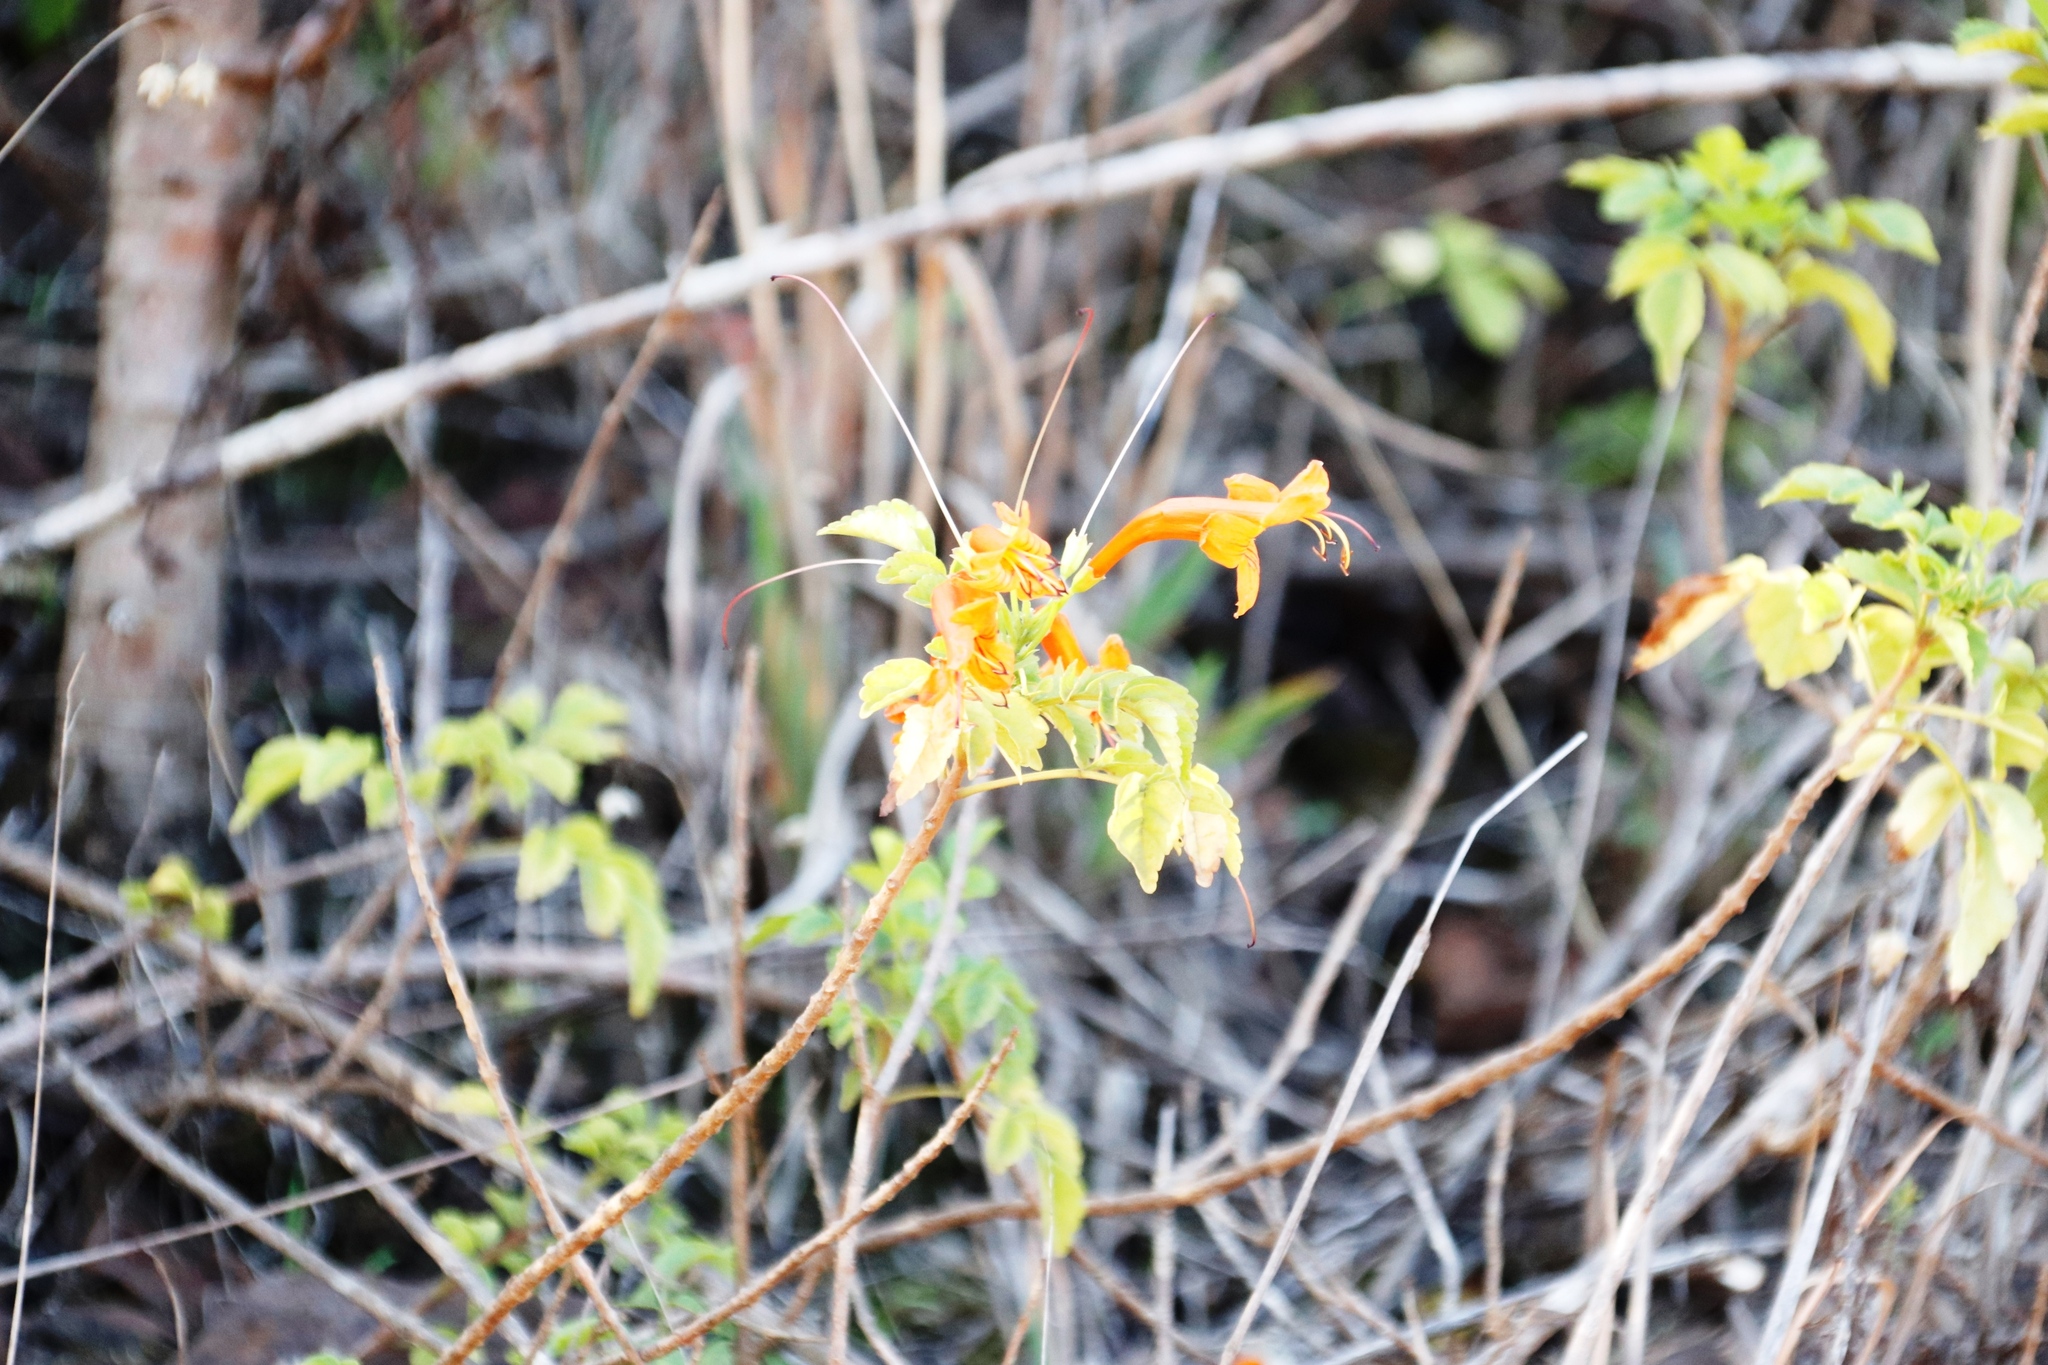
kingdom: Plantae
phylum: Tracheophyta
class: Magnoliopsida
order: Lamiales
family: Bignoniaceae
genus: Tecomaria
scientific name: Tecomaria capensis
